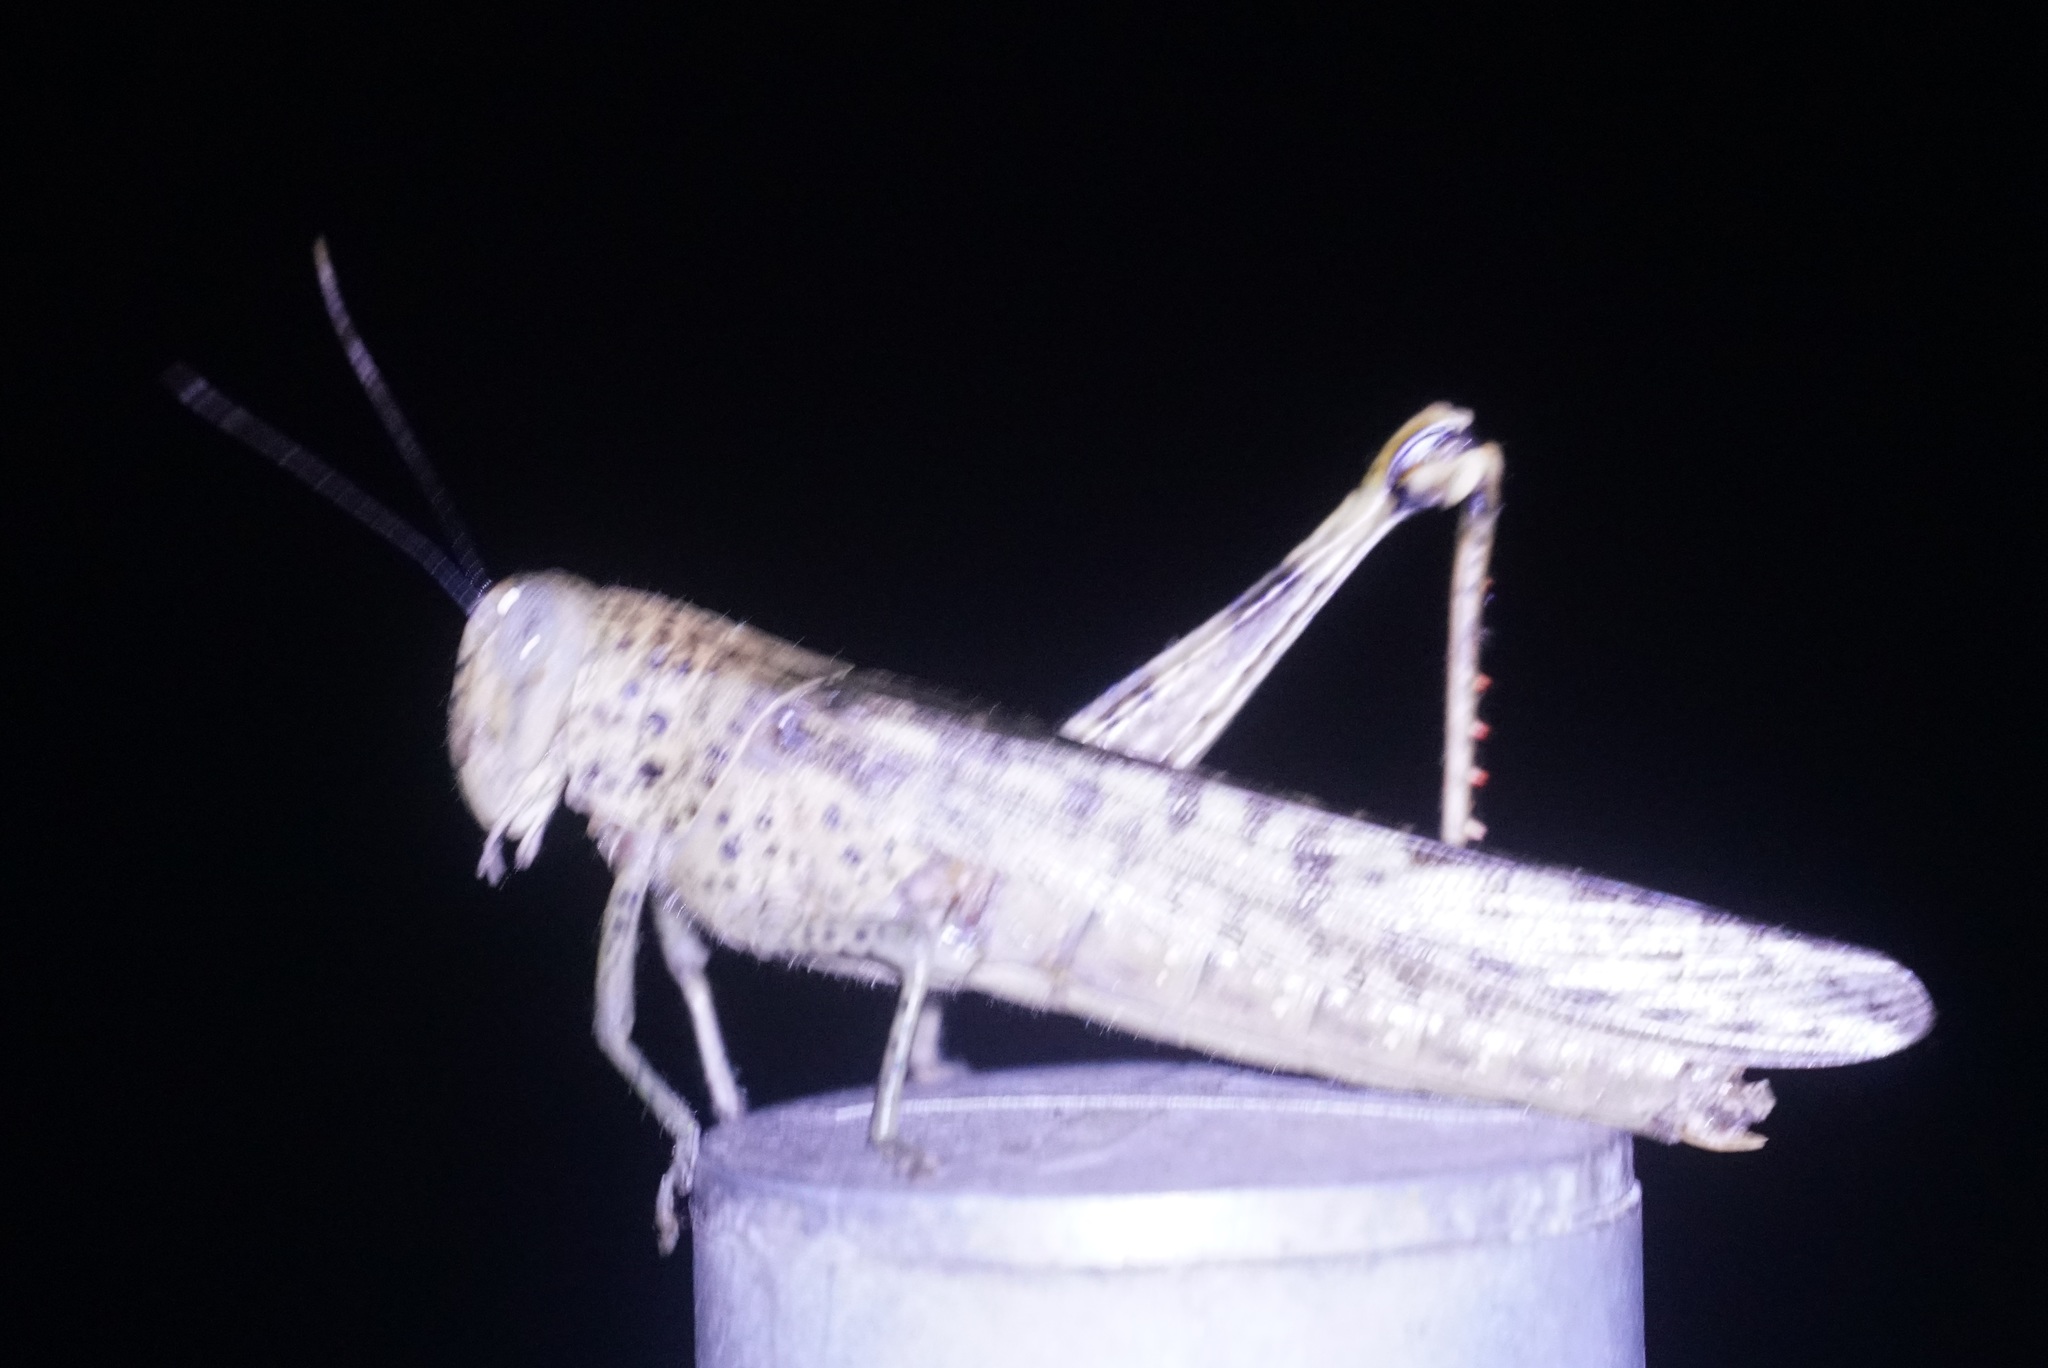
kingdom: Animalia
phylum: Arthropoda
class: Insecta
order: Orthoptera
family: Acrididae
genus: Valanga
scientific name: Valanga irregularis
